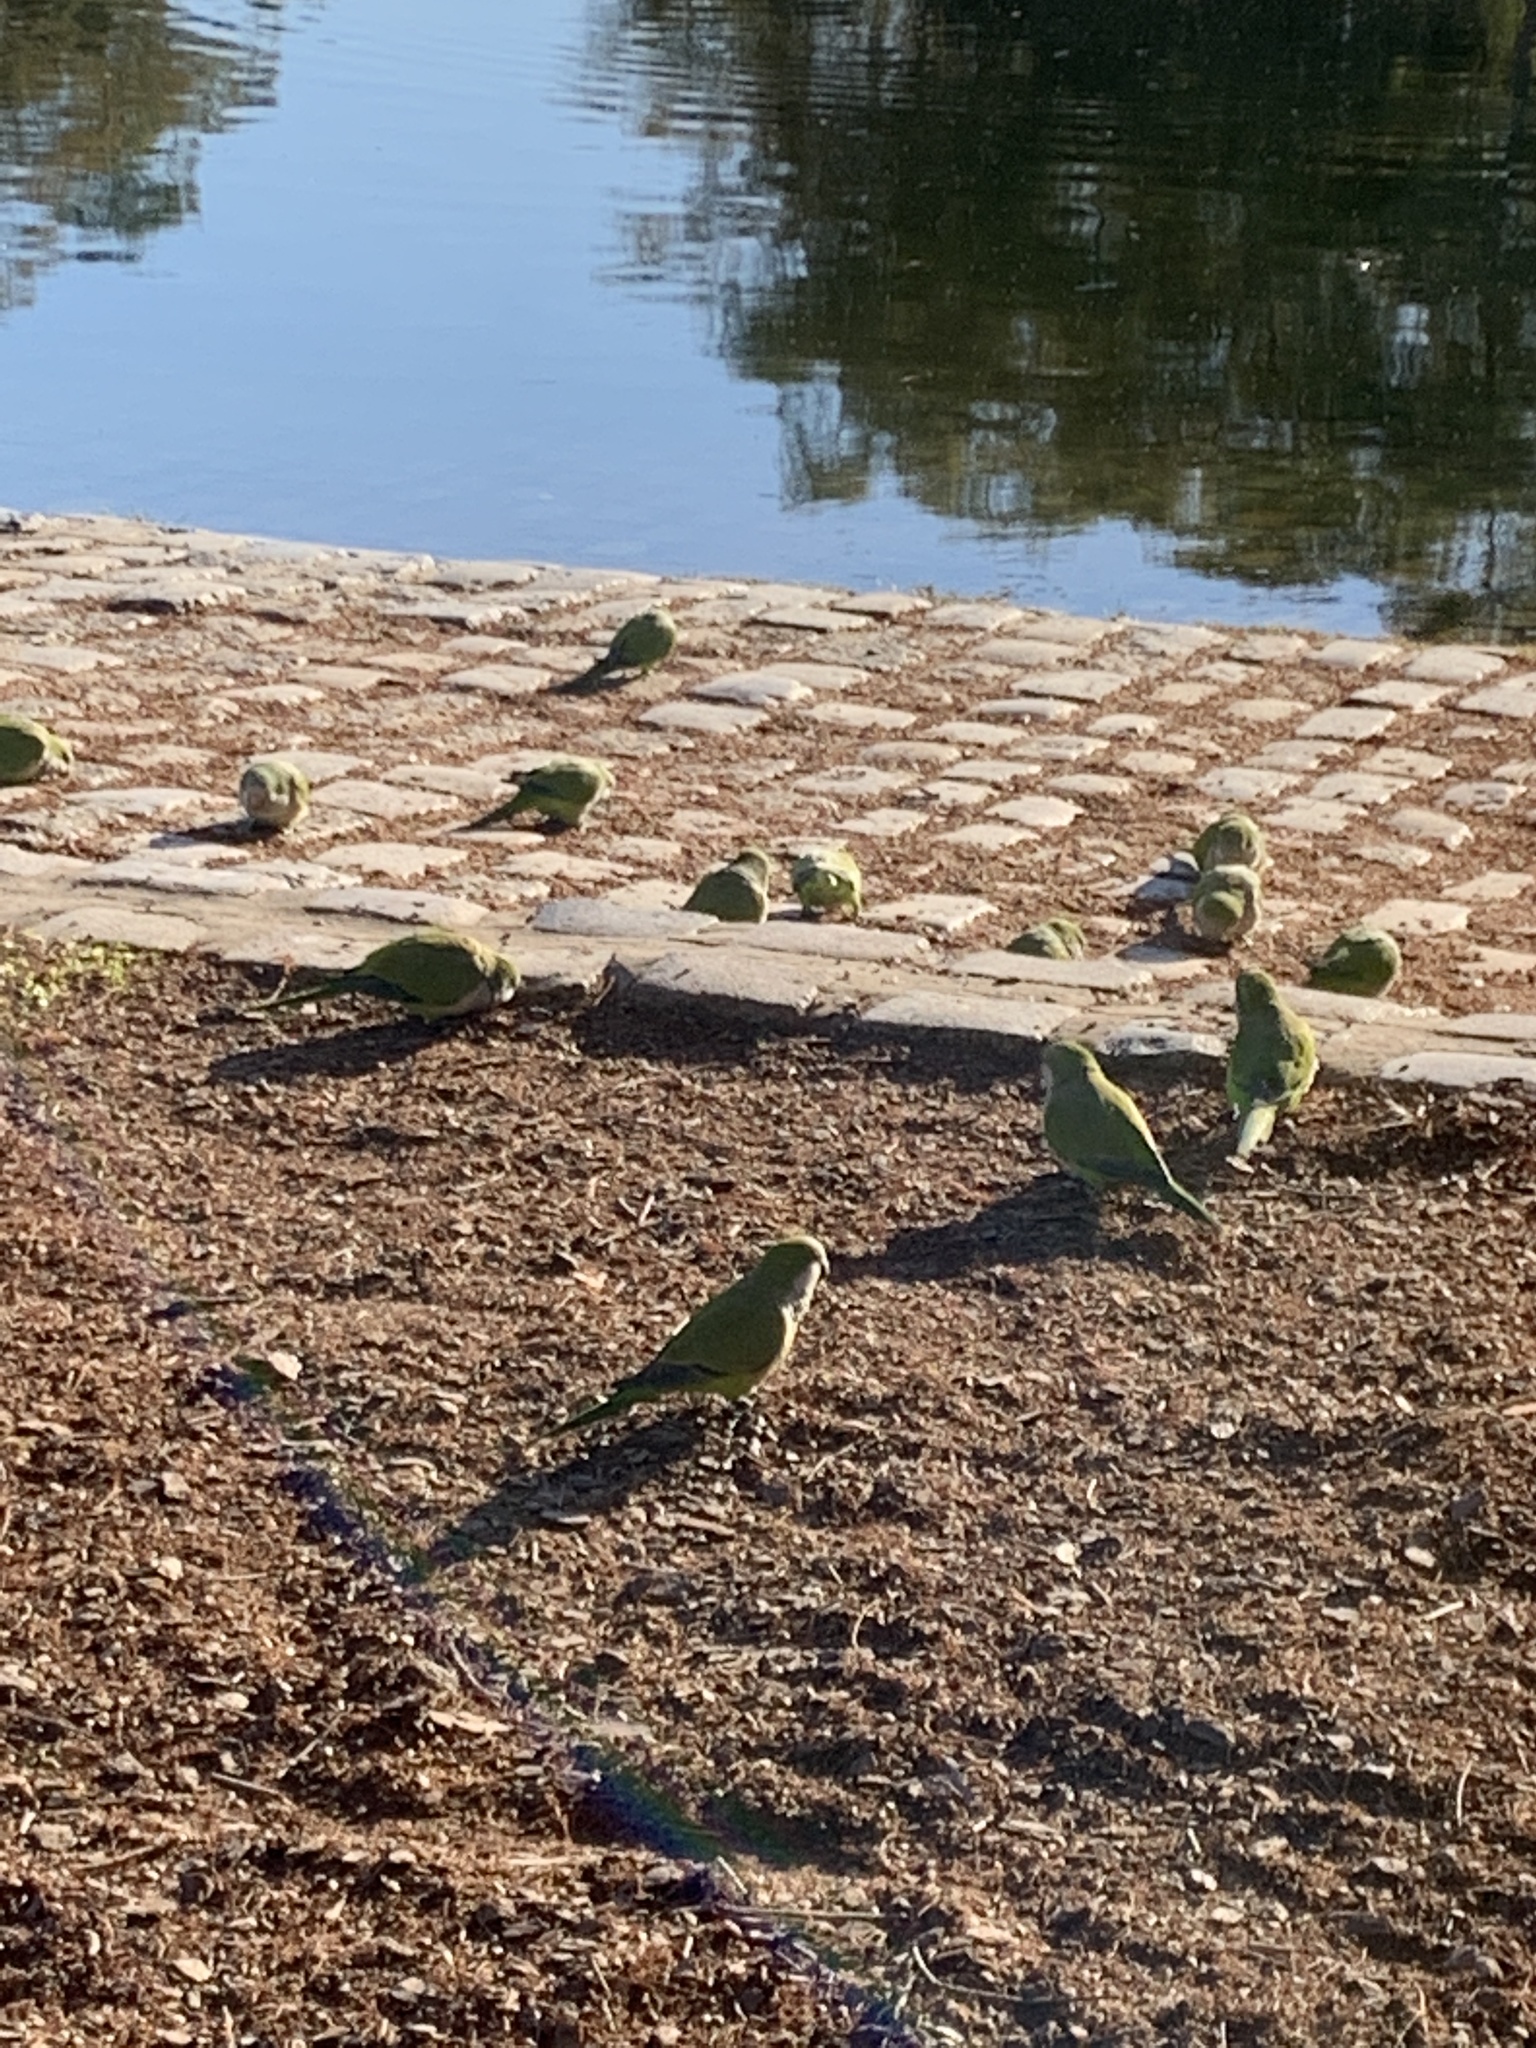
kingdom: Animalia
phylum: Chordata
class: Aves
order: Psittaciformes
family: Psittacidae
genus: Myiopsitta
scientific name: Myiopsitta monachus
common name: Monk parakeet
